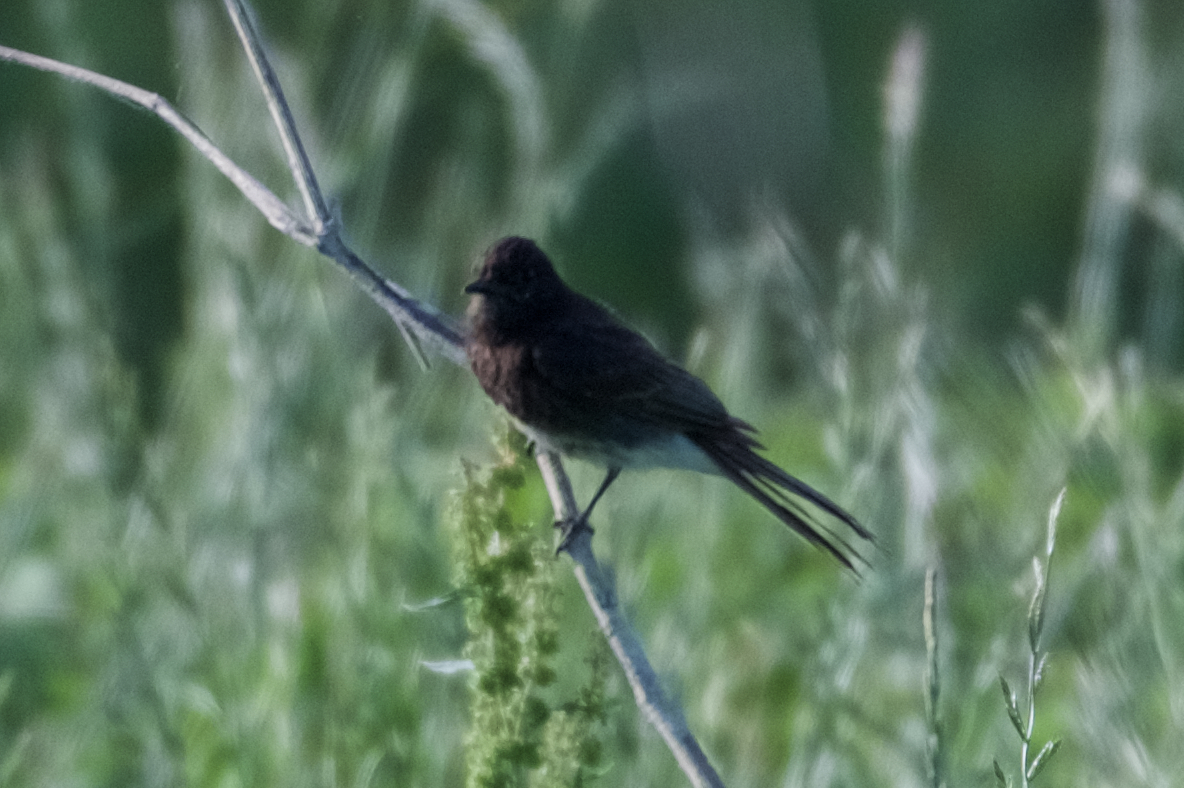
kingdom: Animalia
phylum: Chordata
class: Aves
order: Passeriformes
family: Tyrannidae
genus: Sayornis
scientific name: Sayornis nigricans
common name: Black phoebe
